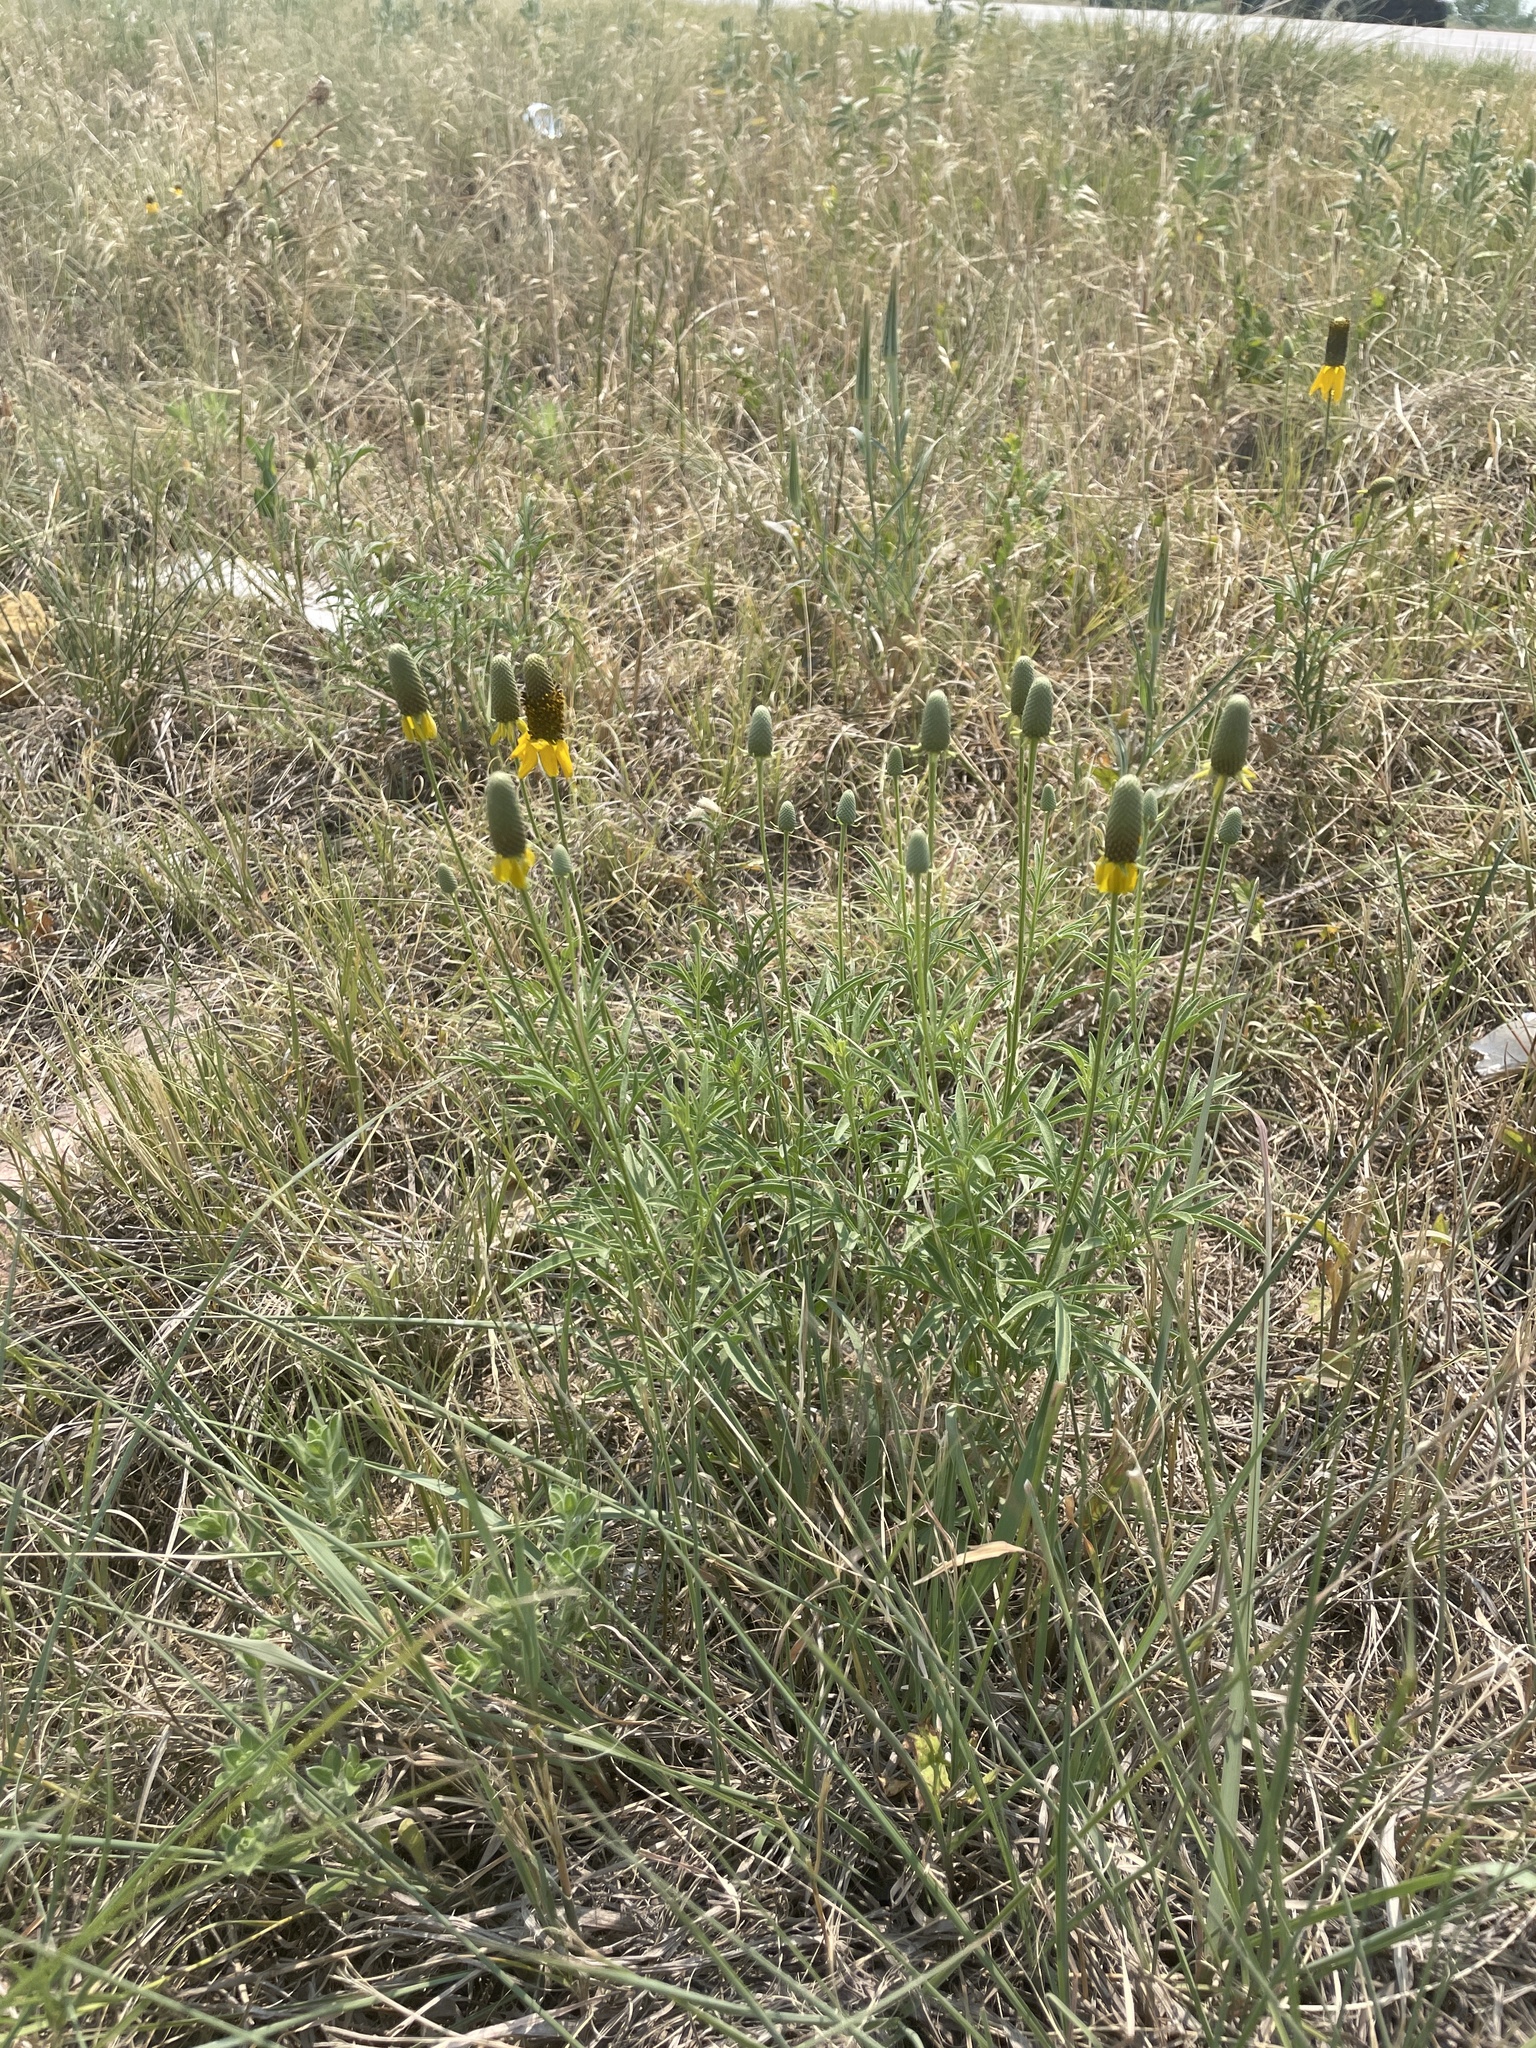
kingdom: Plantae
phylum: Tracheophyta
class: Magnoliopsida
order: Asterales
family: Asteraceae
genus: Ratibida
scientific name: Ratibida columnifera
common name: Prairie coneflower
